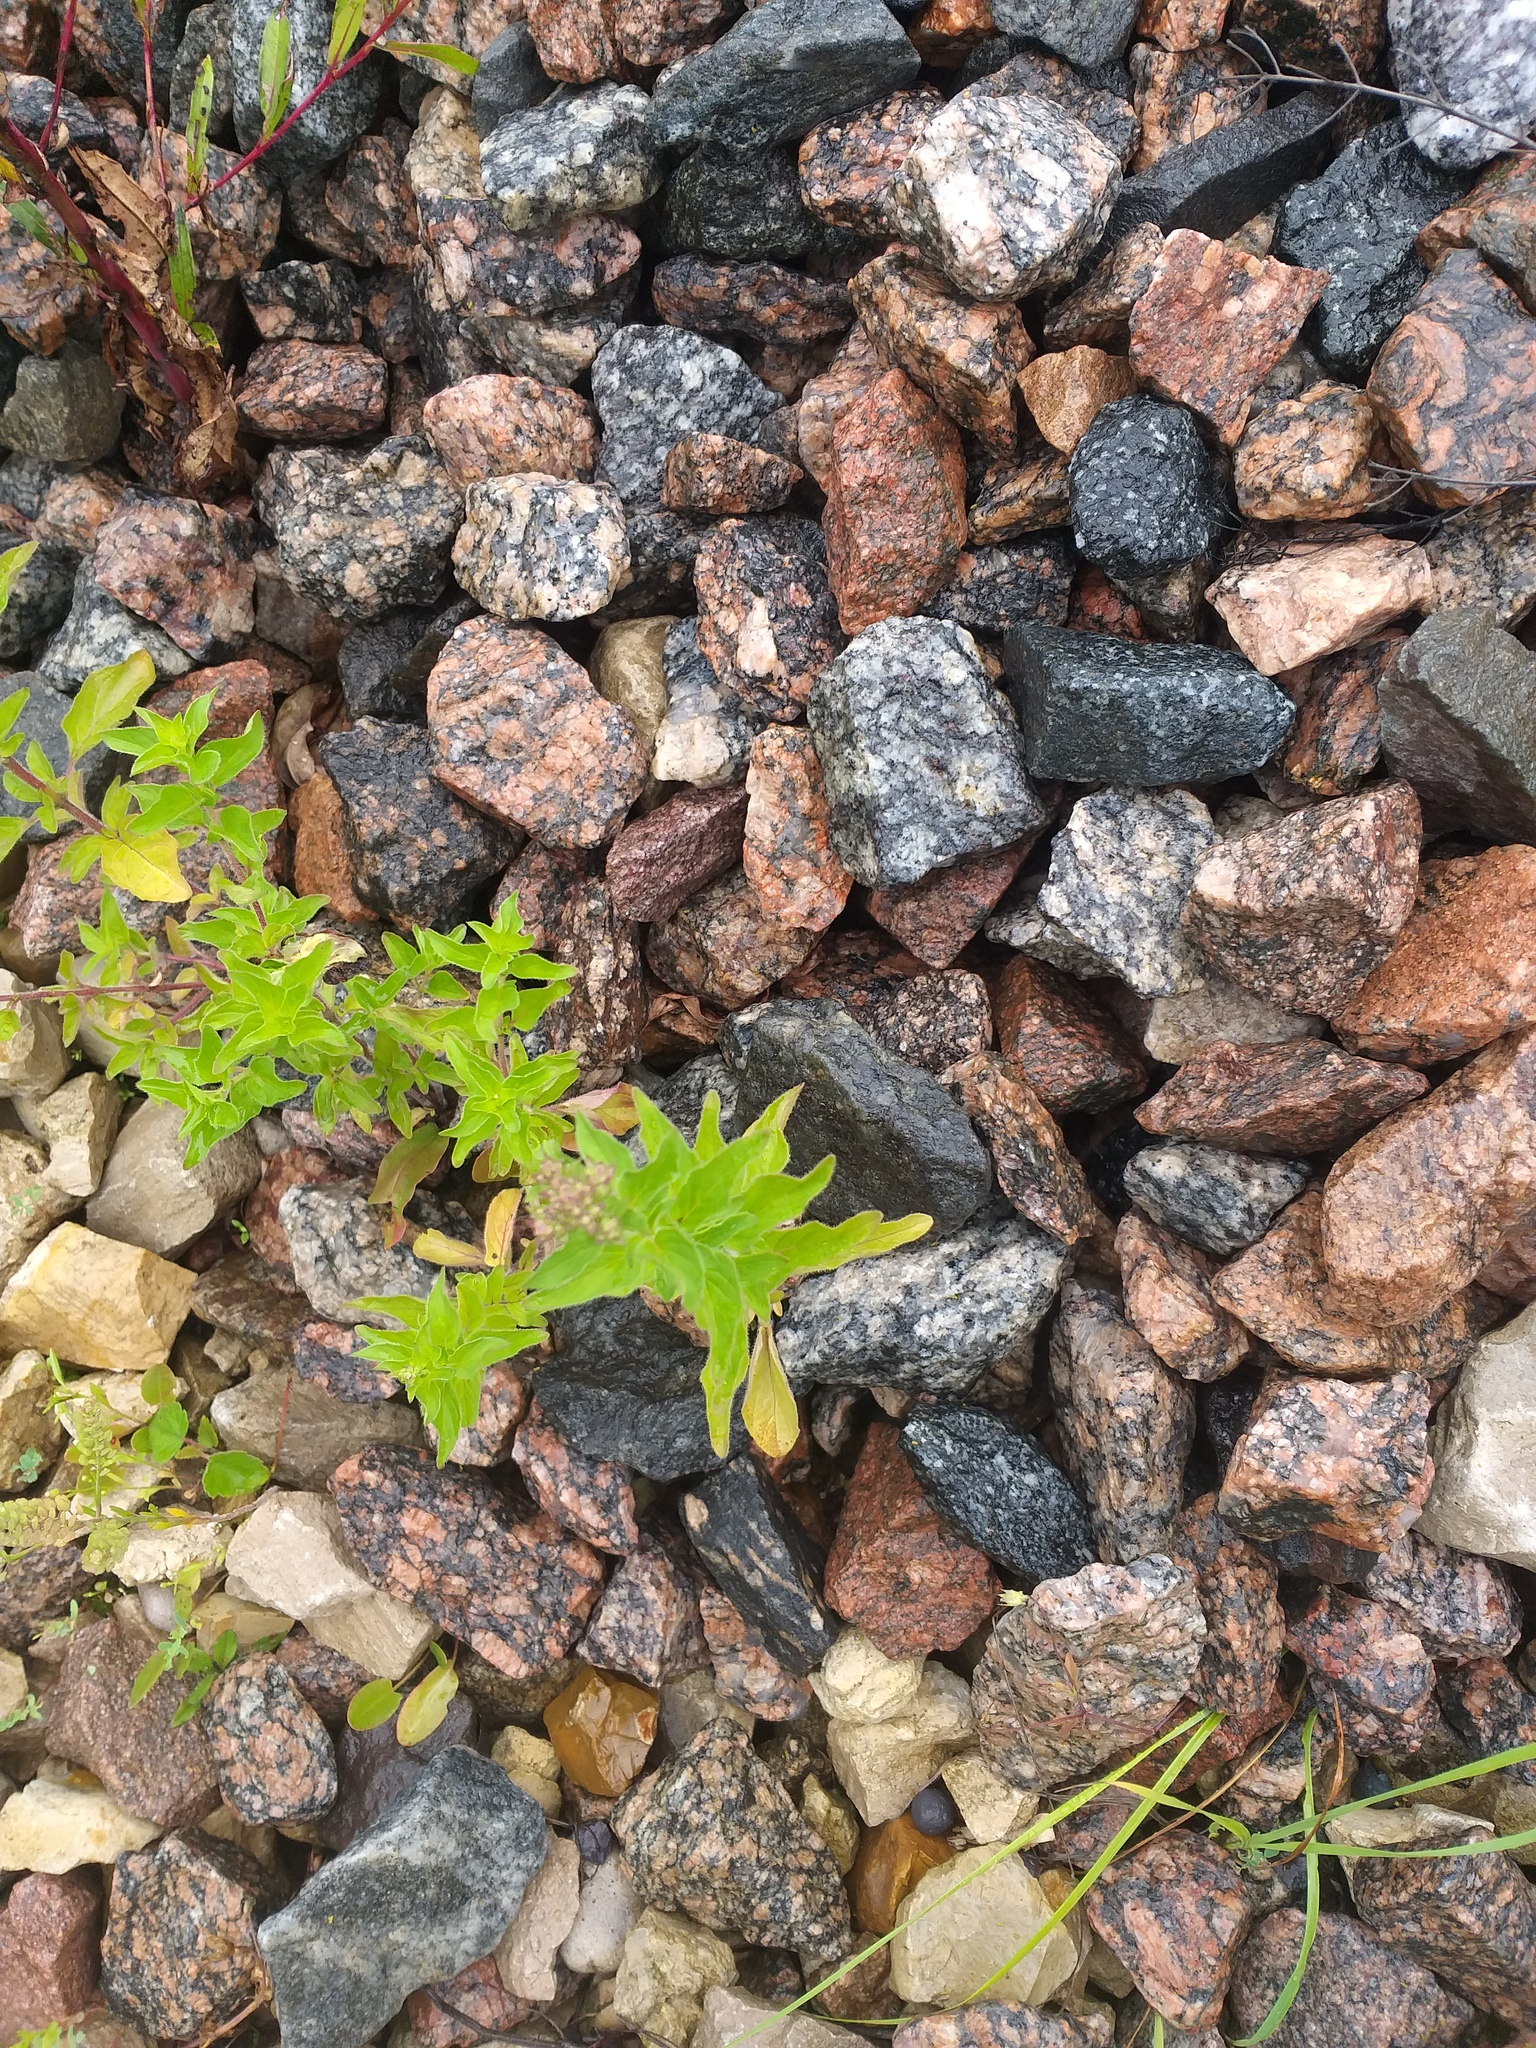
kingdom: Plantae
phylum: Tracheophyta
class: Magnoliopsida
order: Lamiales
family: Lamiaceae
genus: Origanum
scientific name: Origanum vulgare
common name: Wild marjoram
